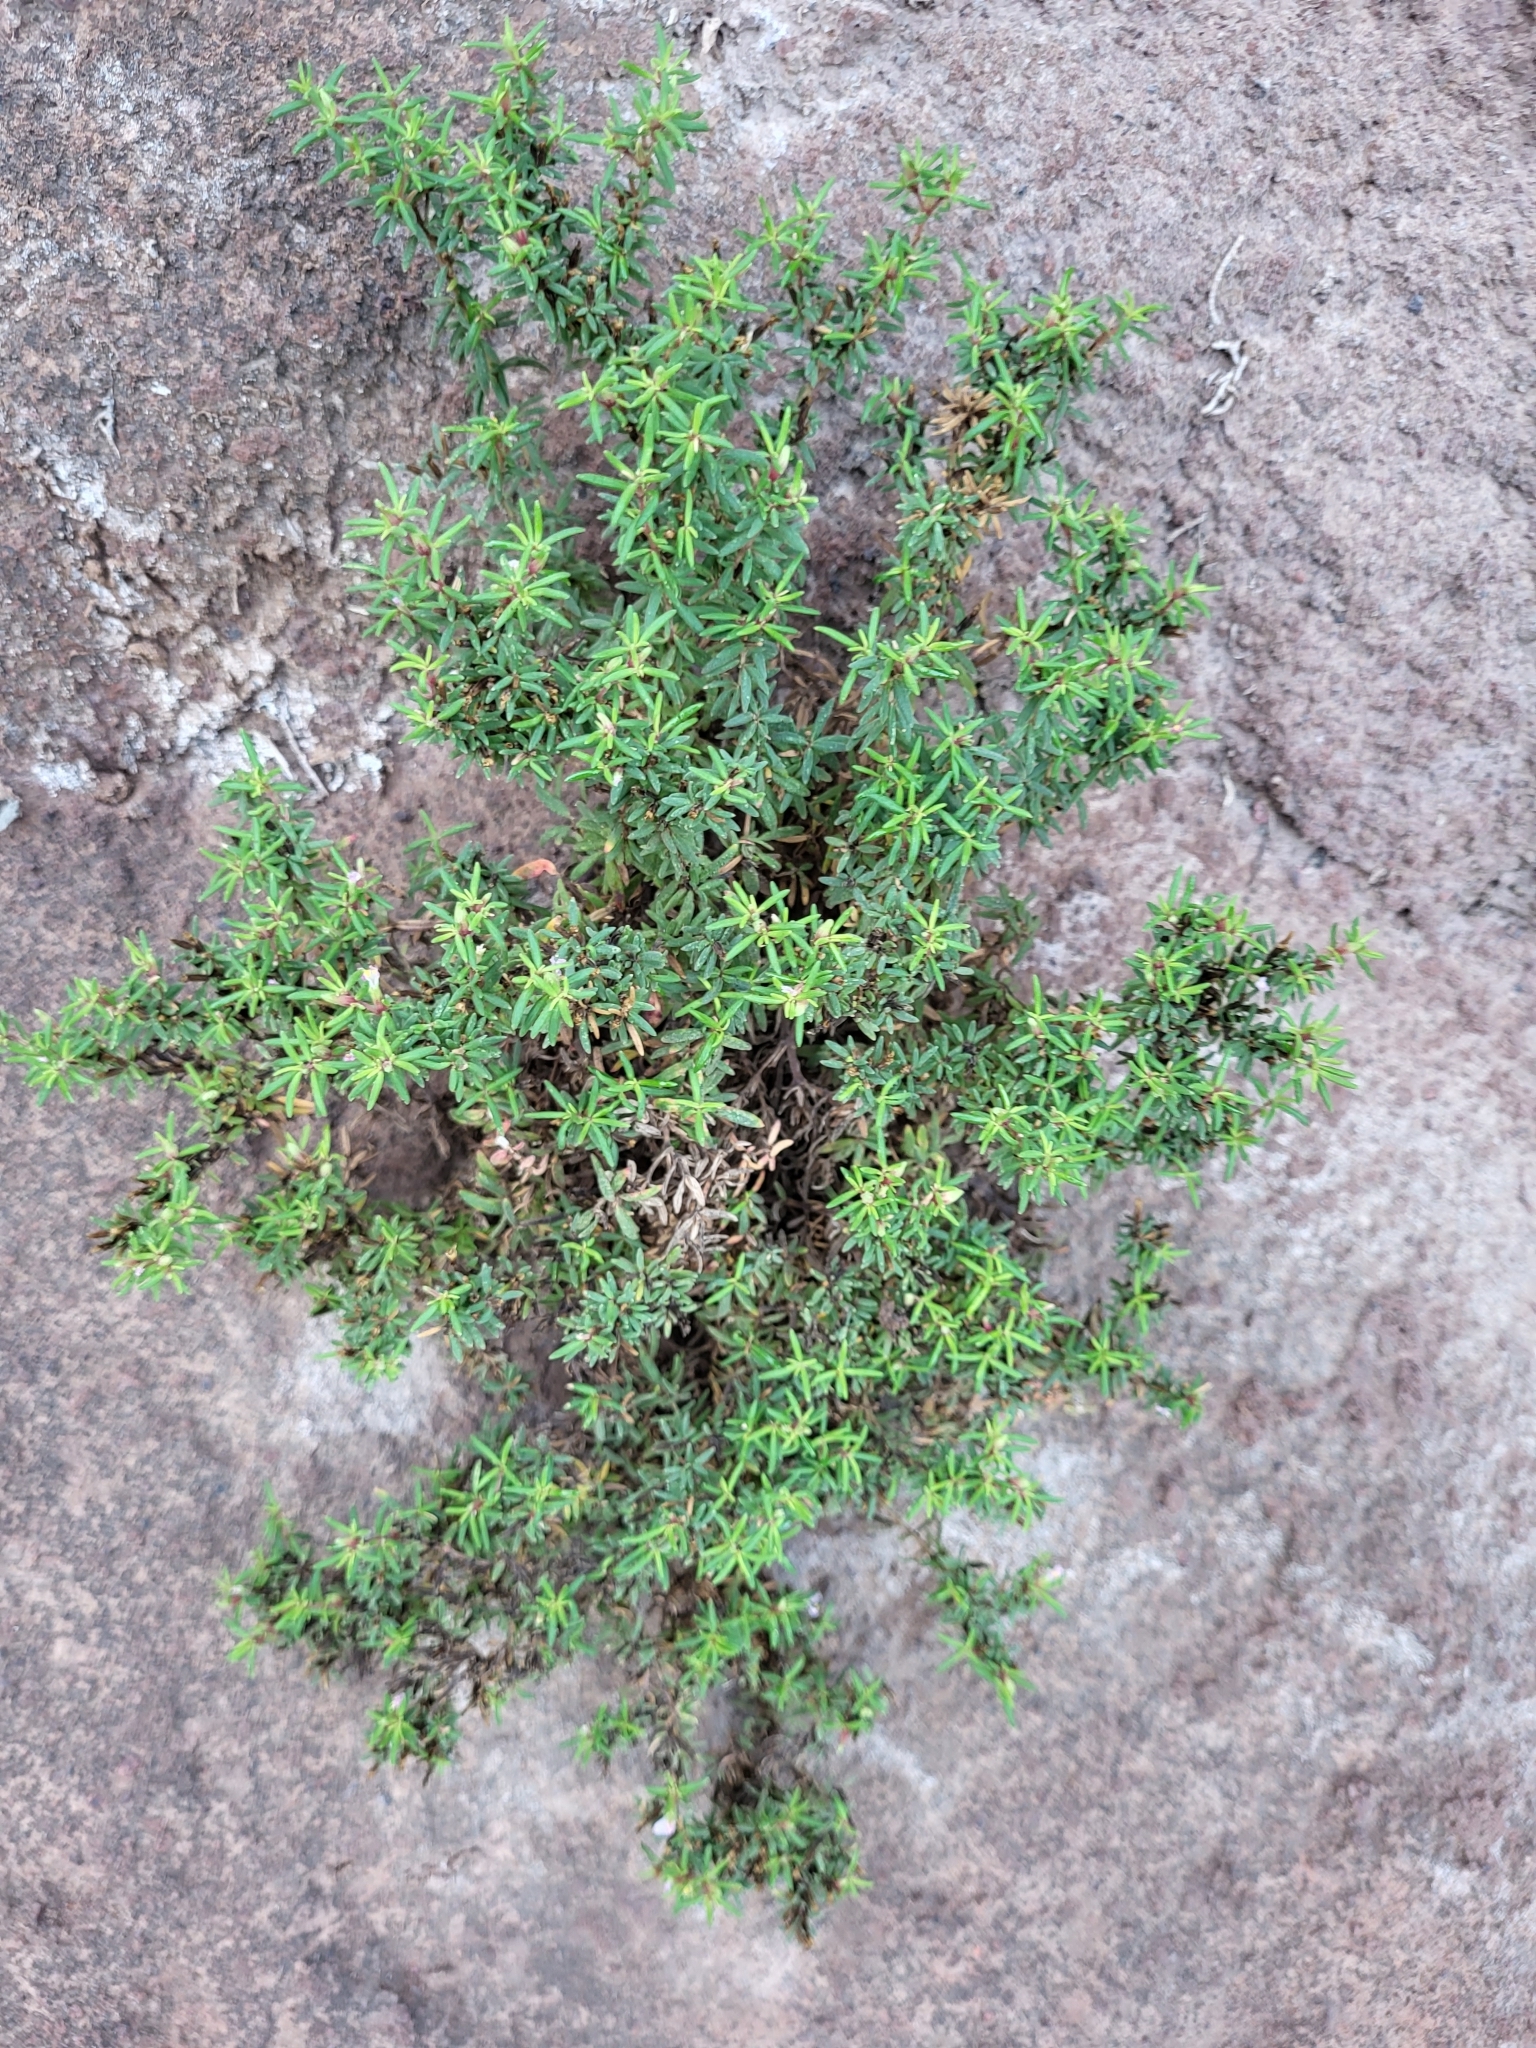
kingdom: Plantae
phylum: Tracheophyta
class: Magnoliopsida
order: Caryophyllales
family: Frankeniaceae
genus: Frankenia
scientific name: Frankenia ericifolia
